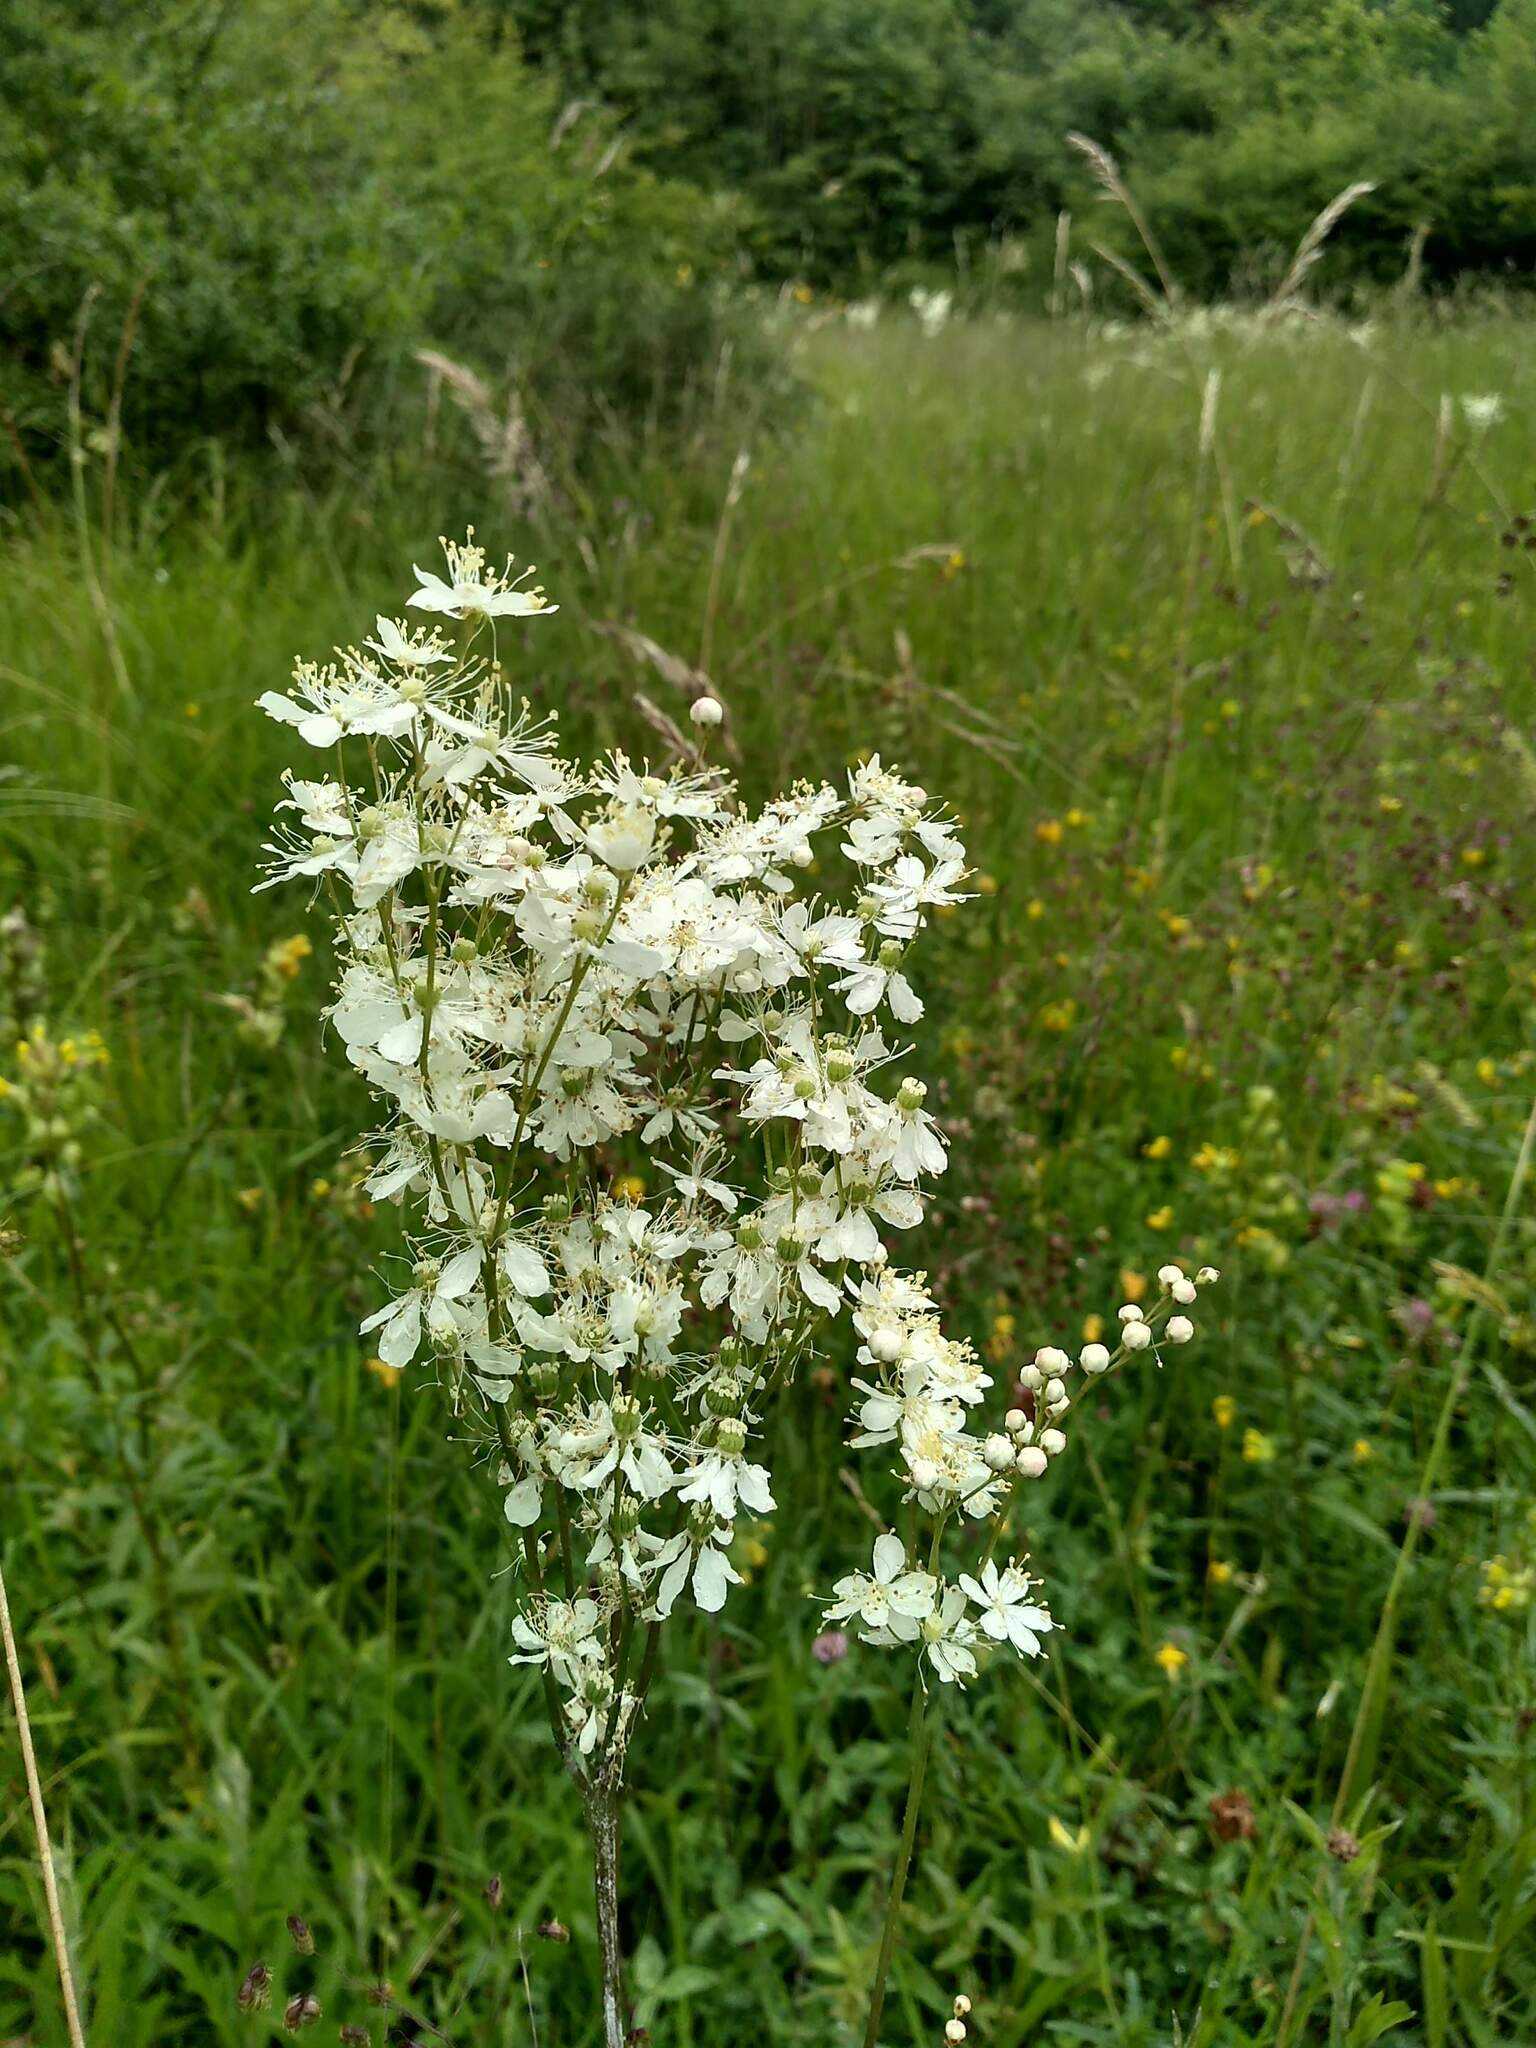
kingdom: Plantae
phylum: Tracheophyta
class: Magnoliopsida
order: Rosales
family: Rosaceae
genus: Filipendula
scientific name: Filipendula vulgaris
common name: Dropwort
